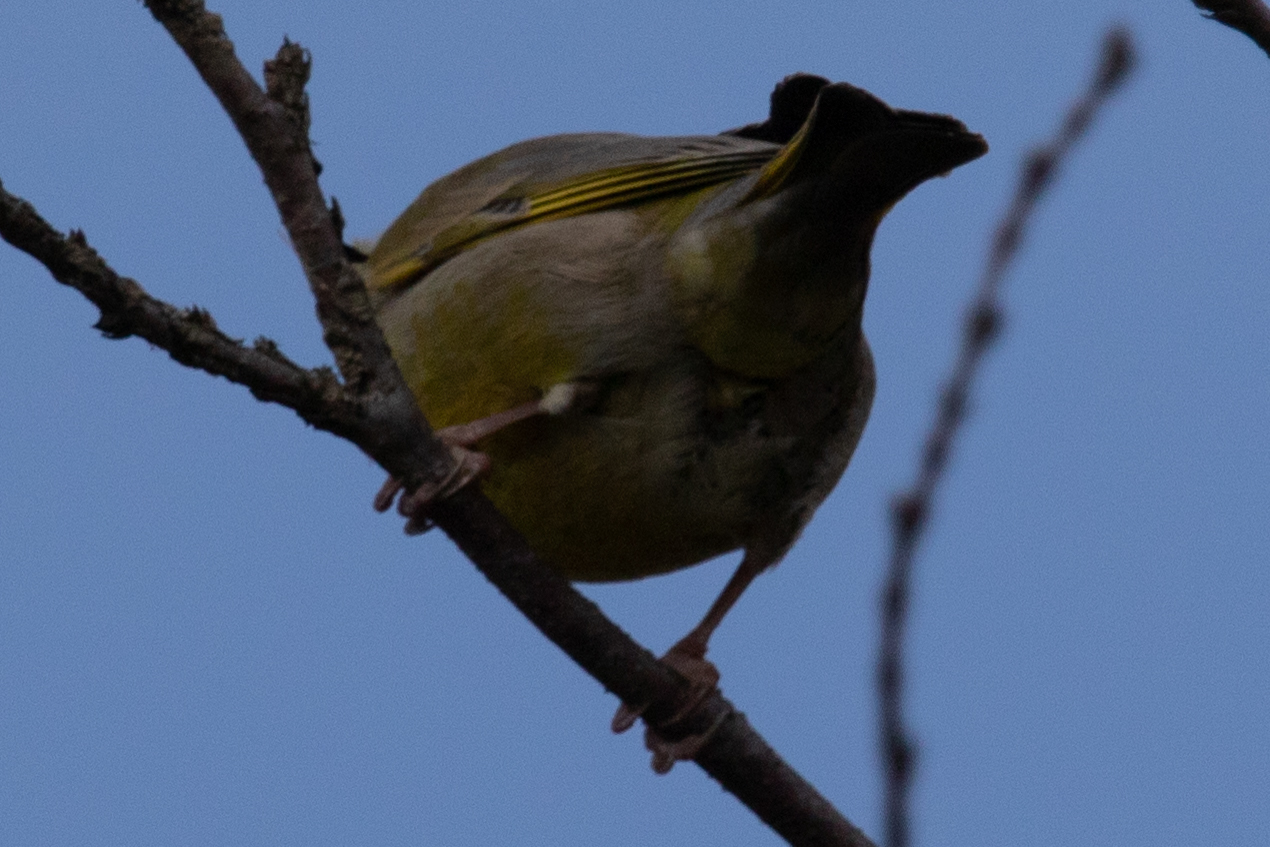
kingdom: Plantae
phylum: Tracheophyta
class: Liliopsida
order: Poales
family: Poaceae
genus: Chloris
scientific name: Chloris chloris
